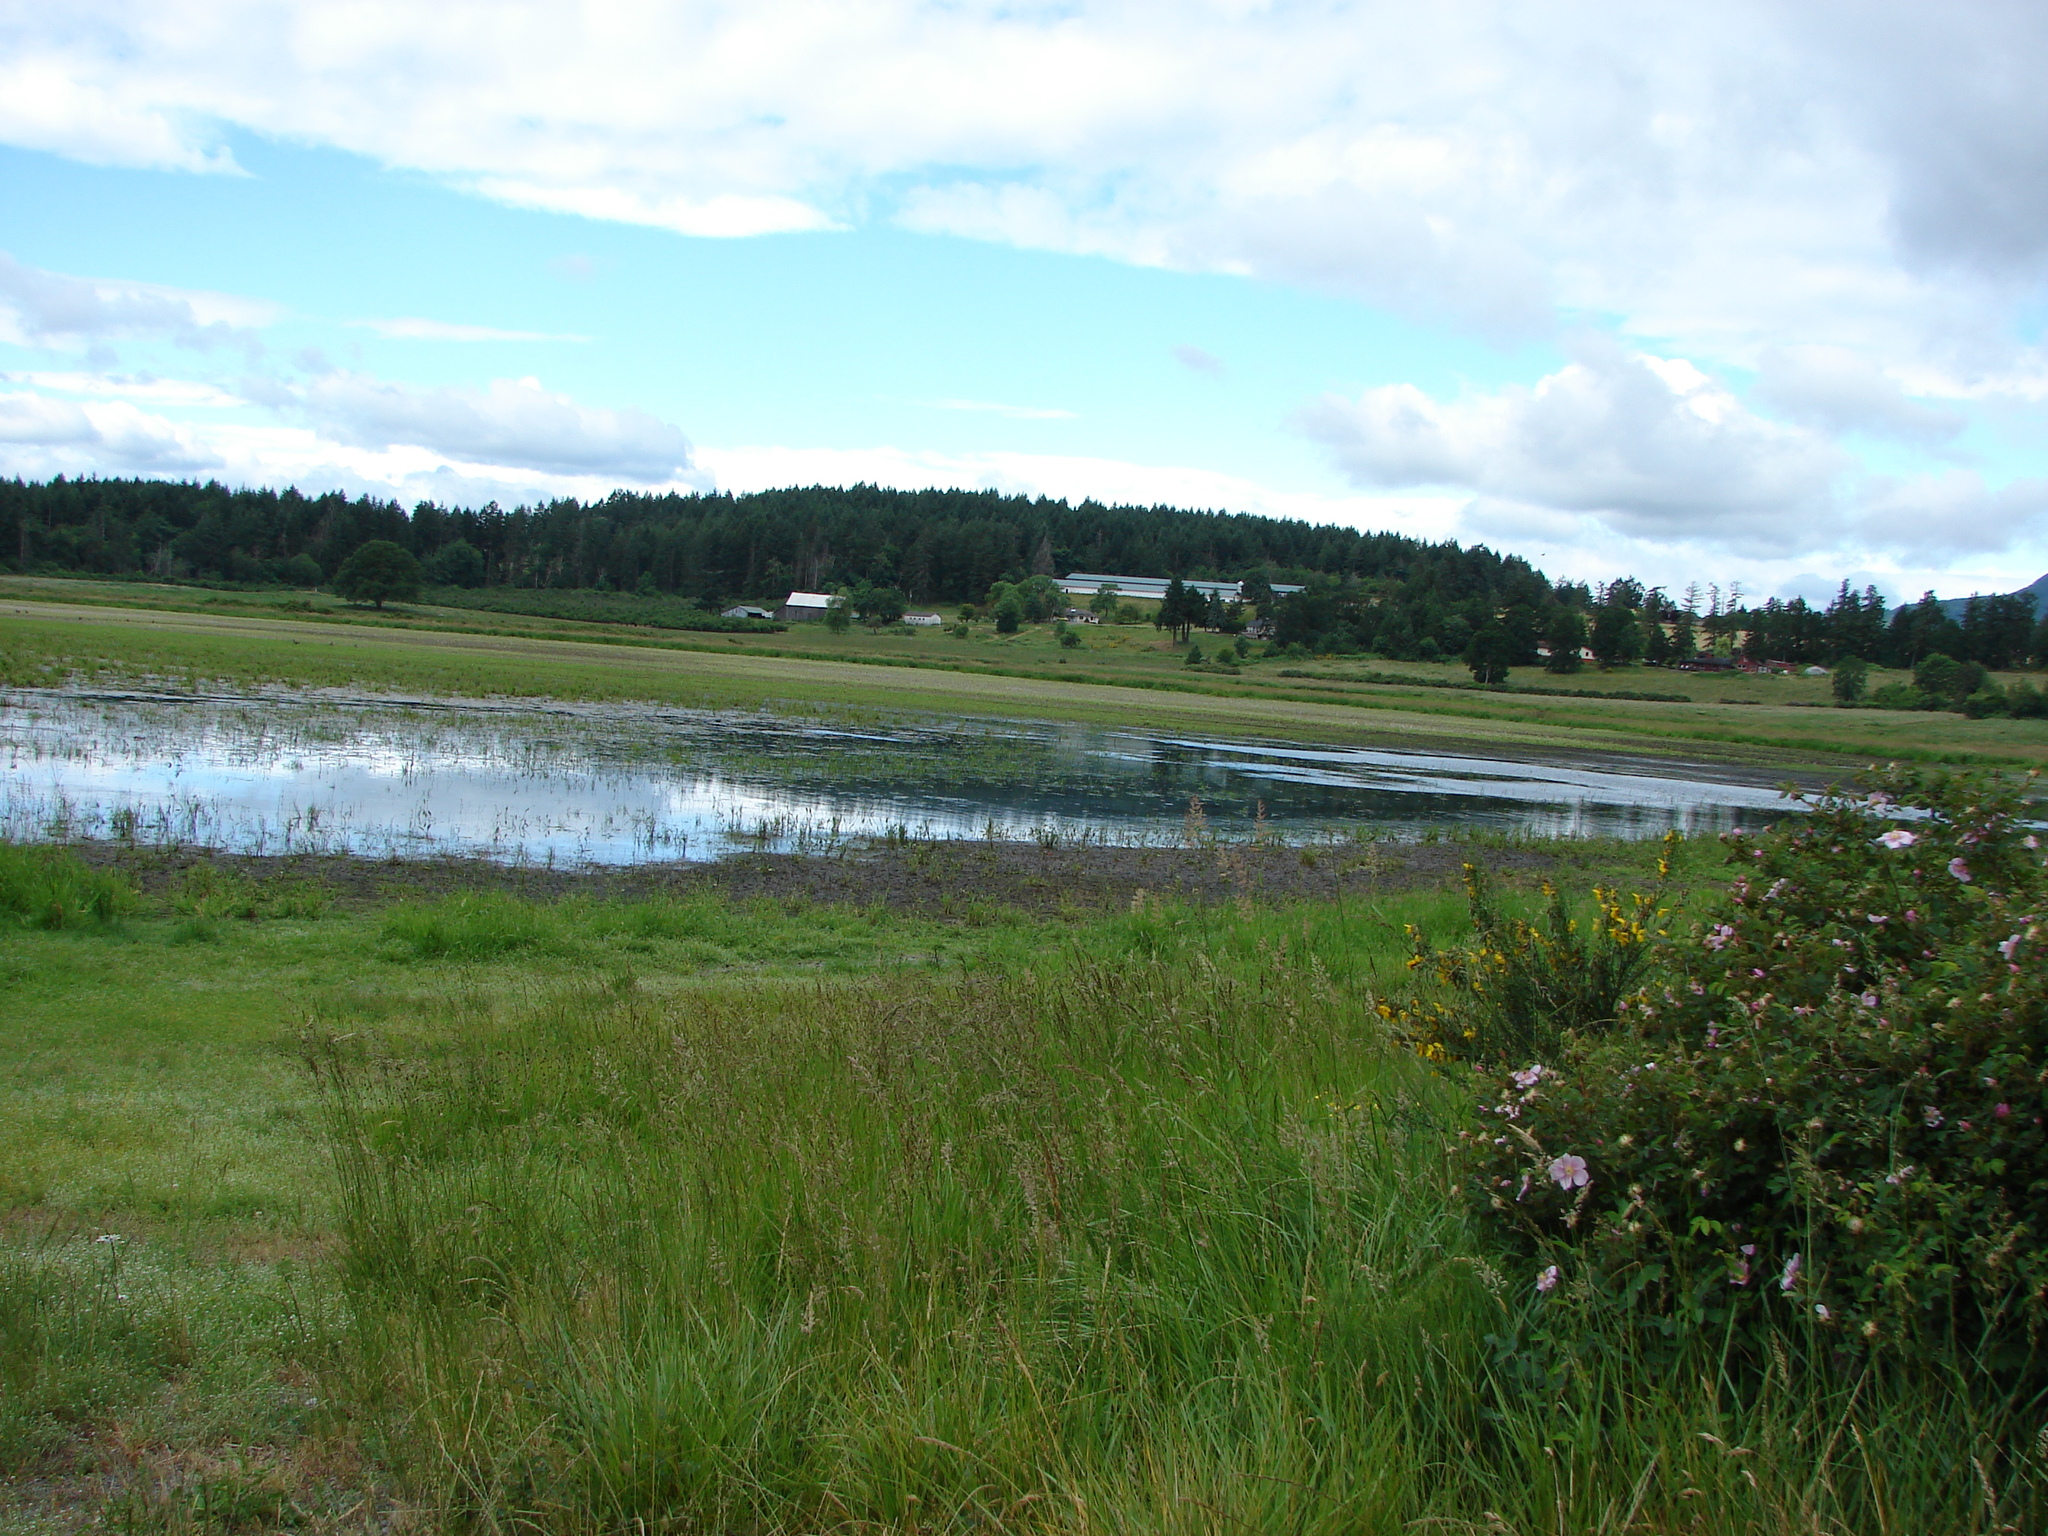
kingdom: Plantae
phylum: Tracheophyta
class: Magnoliopsida
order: Fabales
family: Fabaceae
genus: Cytisus
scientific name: Cytisus scoparius
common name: Scotch broom
